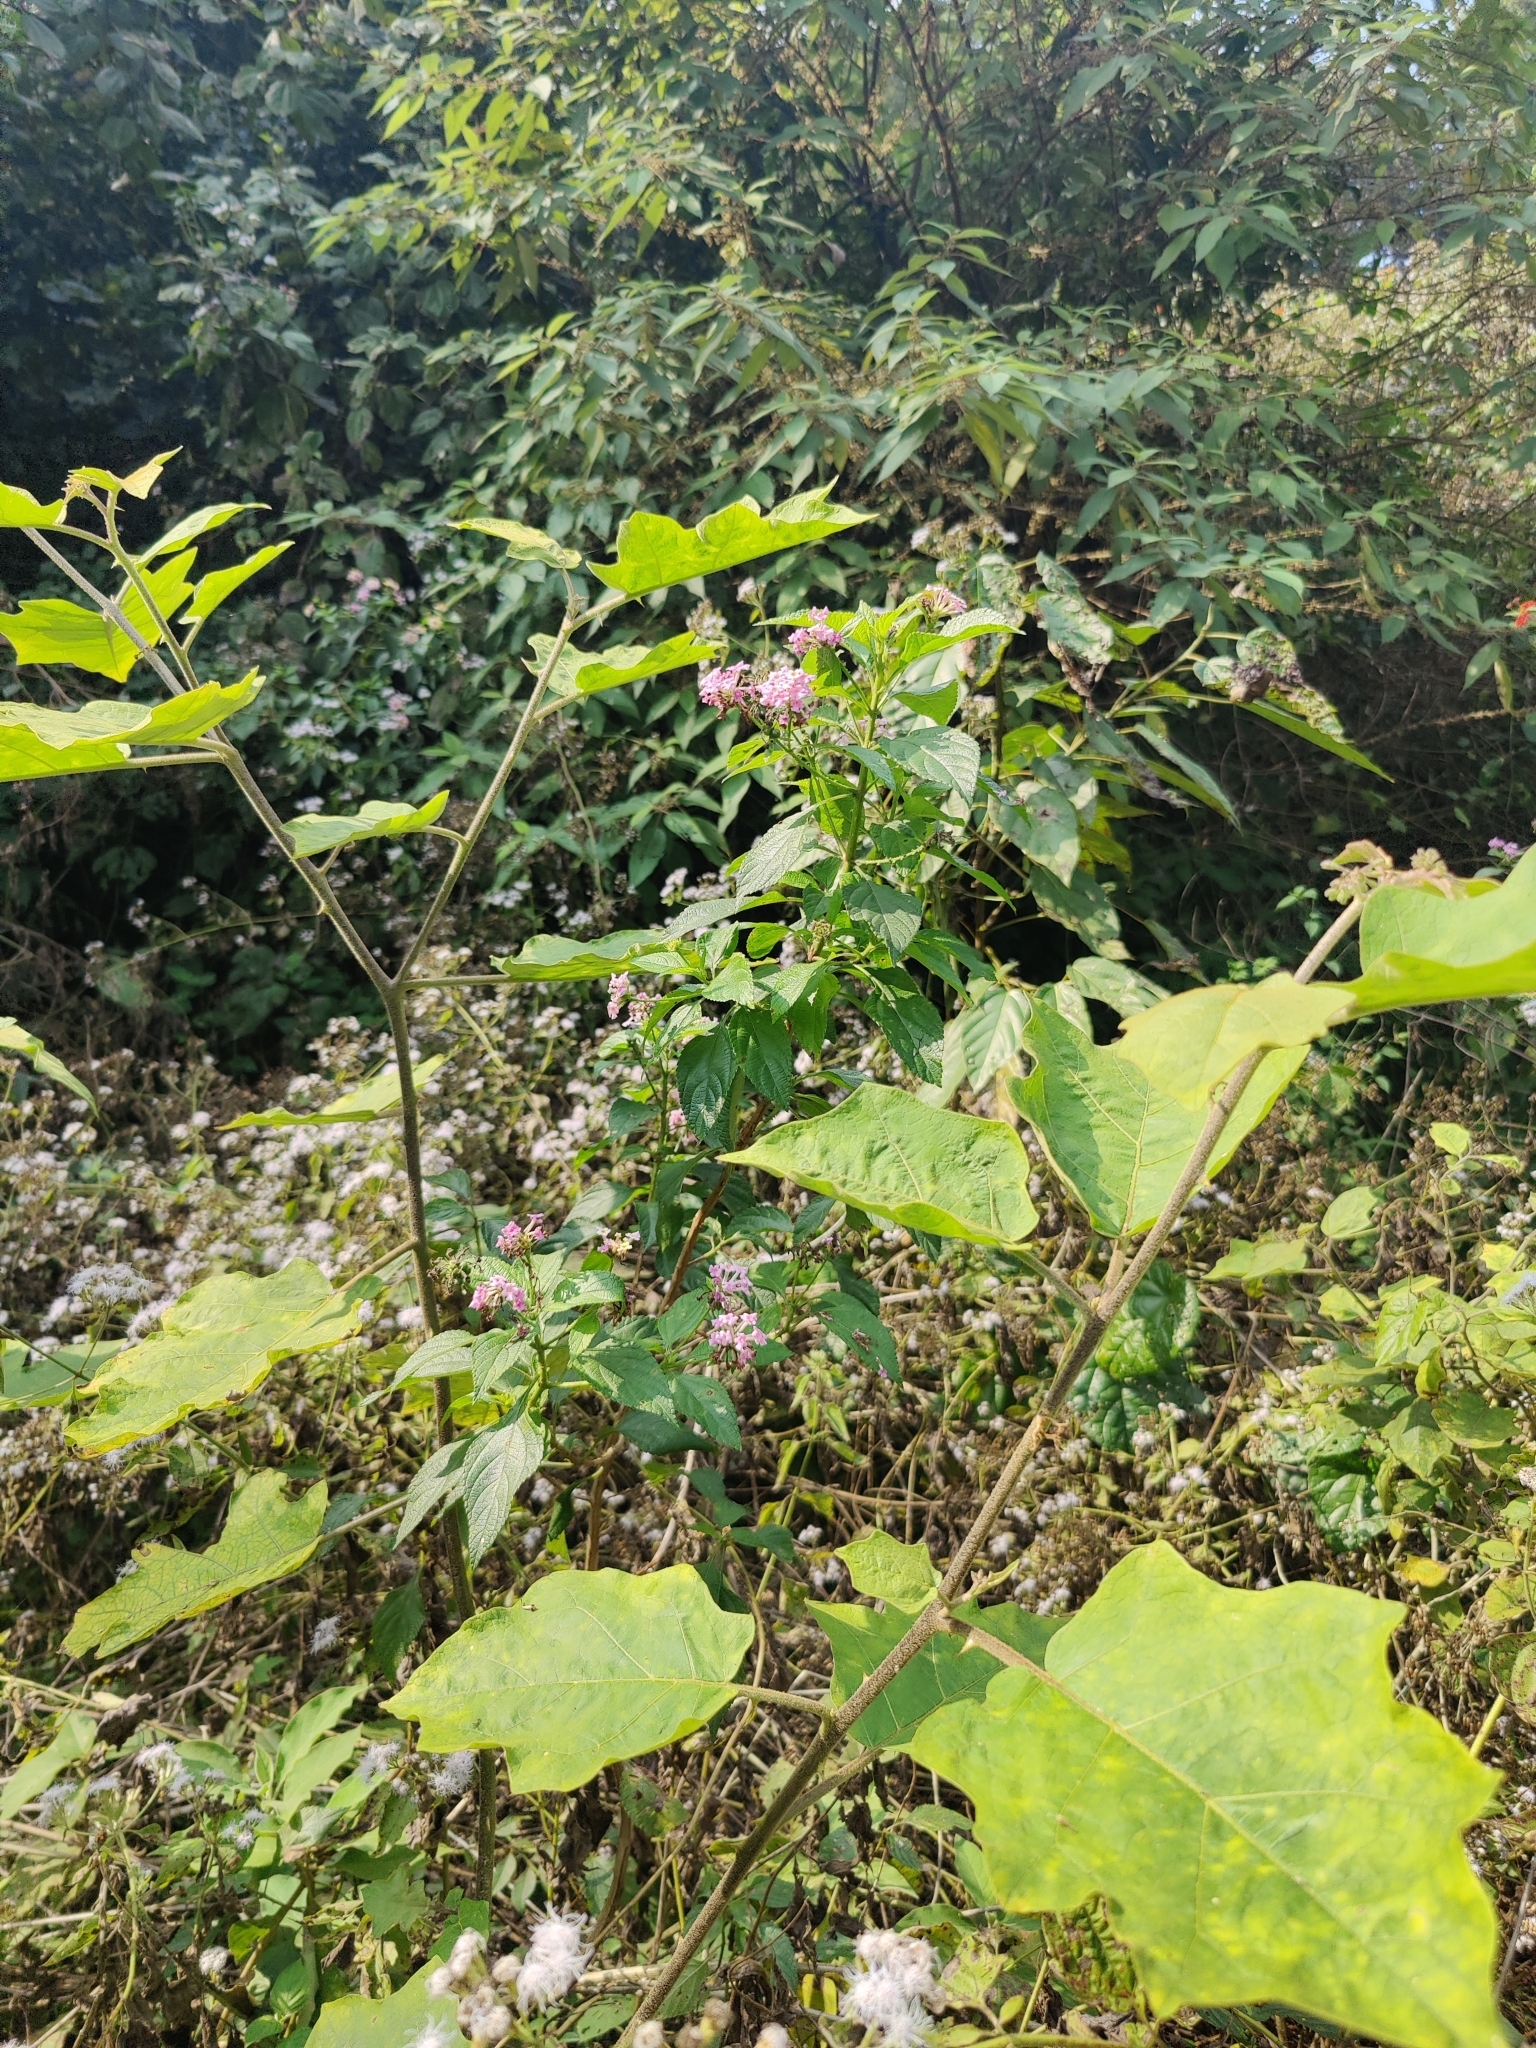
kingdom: Plantae
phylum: Tracheophyta
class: Magnoliopsida
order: Lamiales
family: Verbenaceae
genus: Lantana
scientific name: Lantana camara
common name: Lantana
